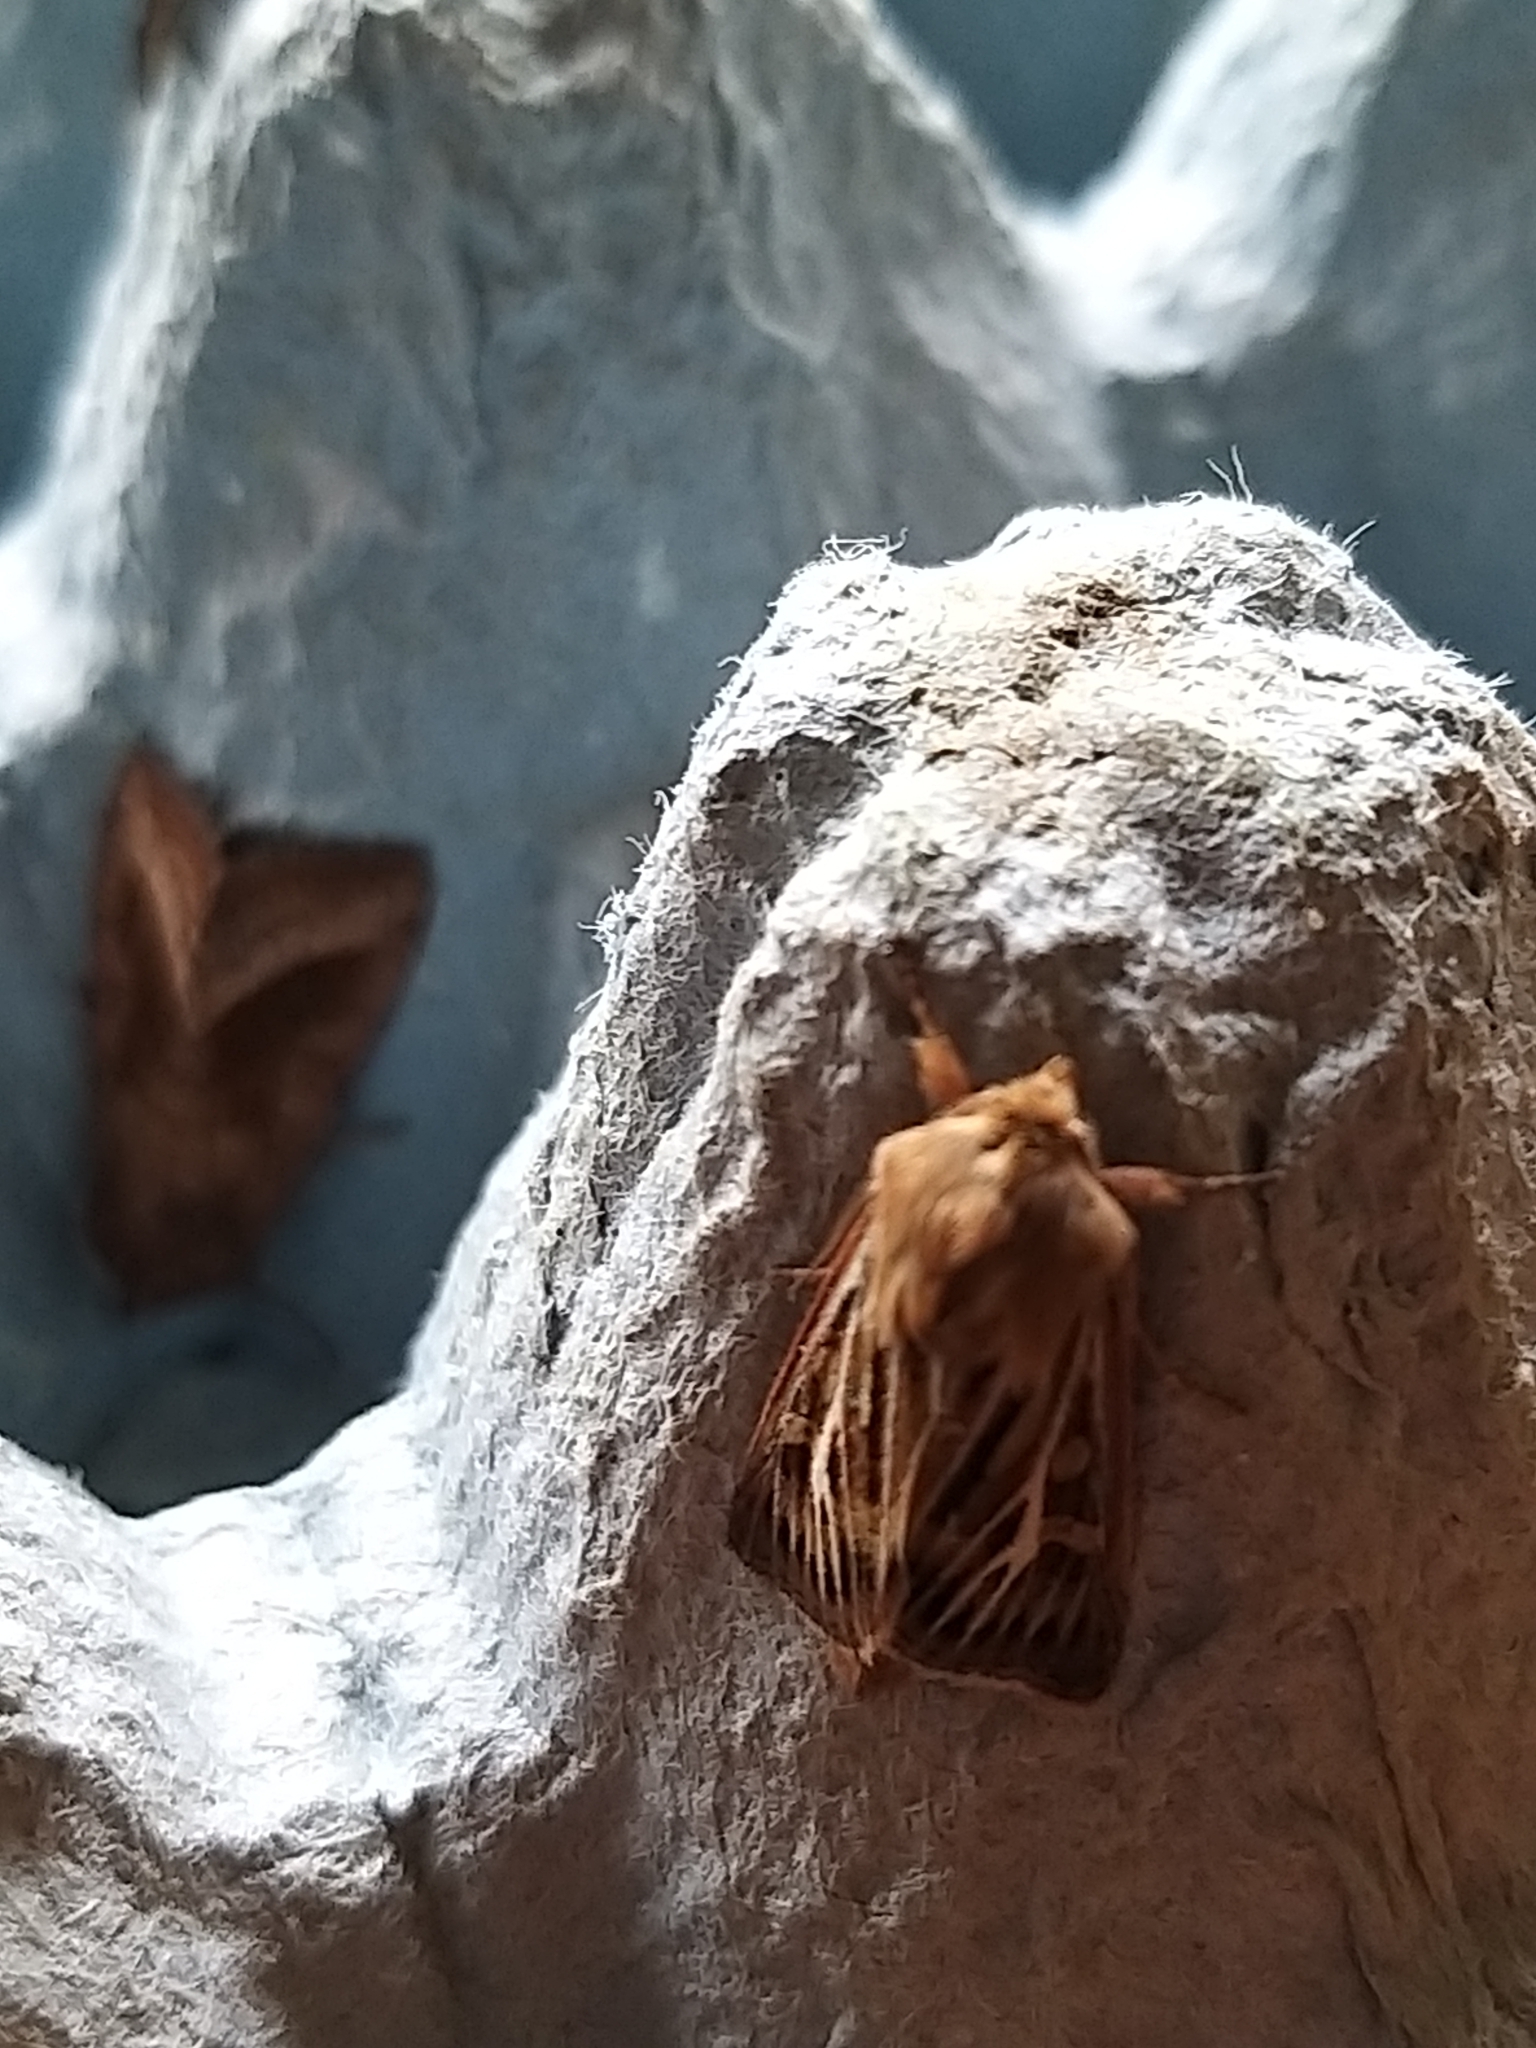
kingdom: Animalia
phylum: Arthropoda
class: Insecta
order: Lepidoptera
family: Noctuidae
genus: Cerapteryx
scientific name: Cerapteryx graminis
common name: Antler moth
